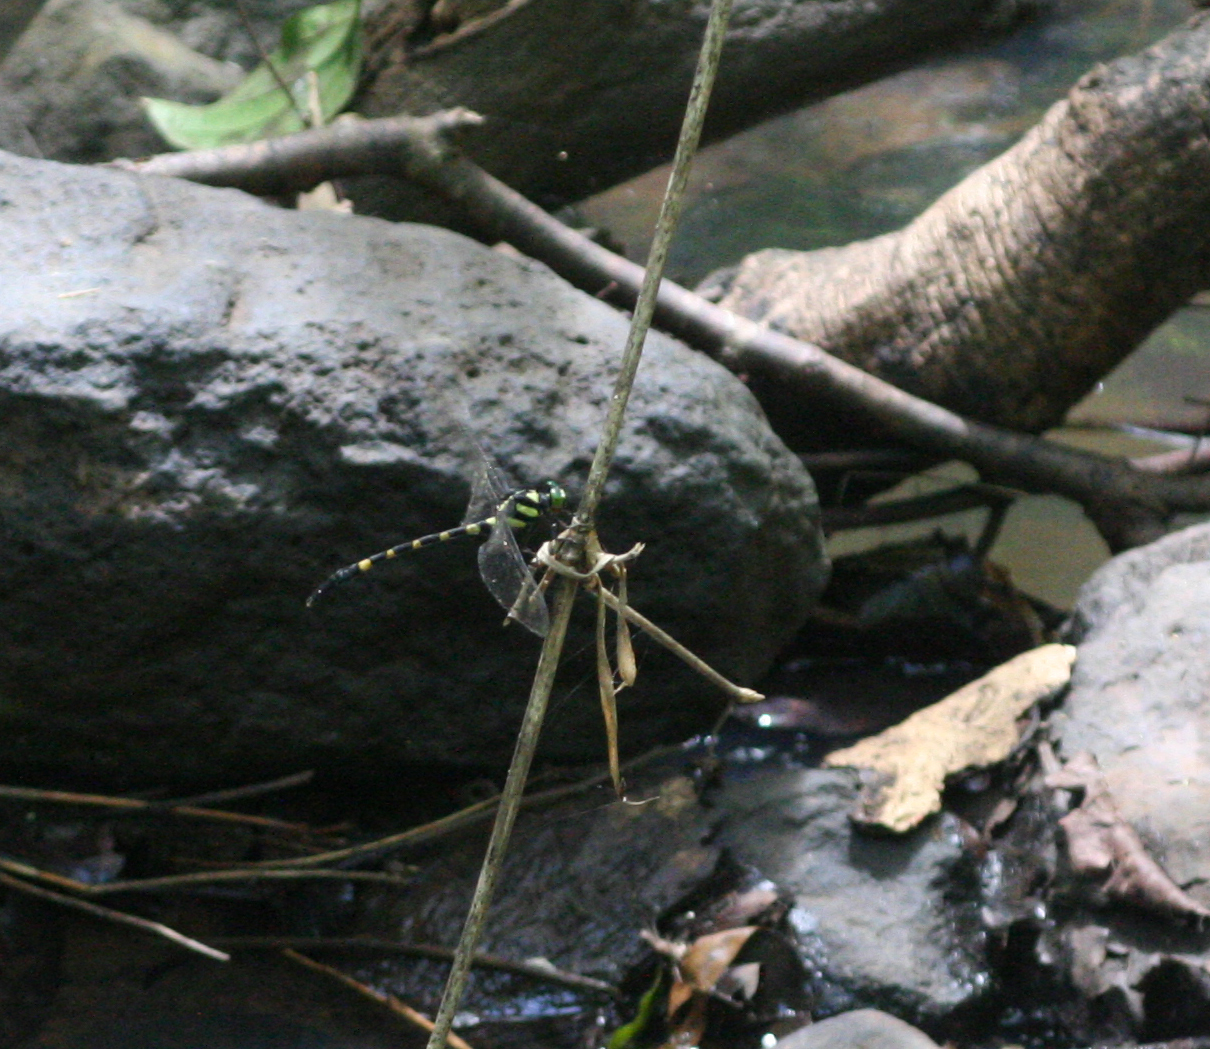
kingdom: Animalia
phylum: Arthropoda
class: Insecta
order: Odonata
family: Gomphidae
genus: Macrogomphus
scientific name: Macrogomphus kerri
